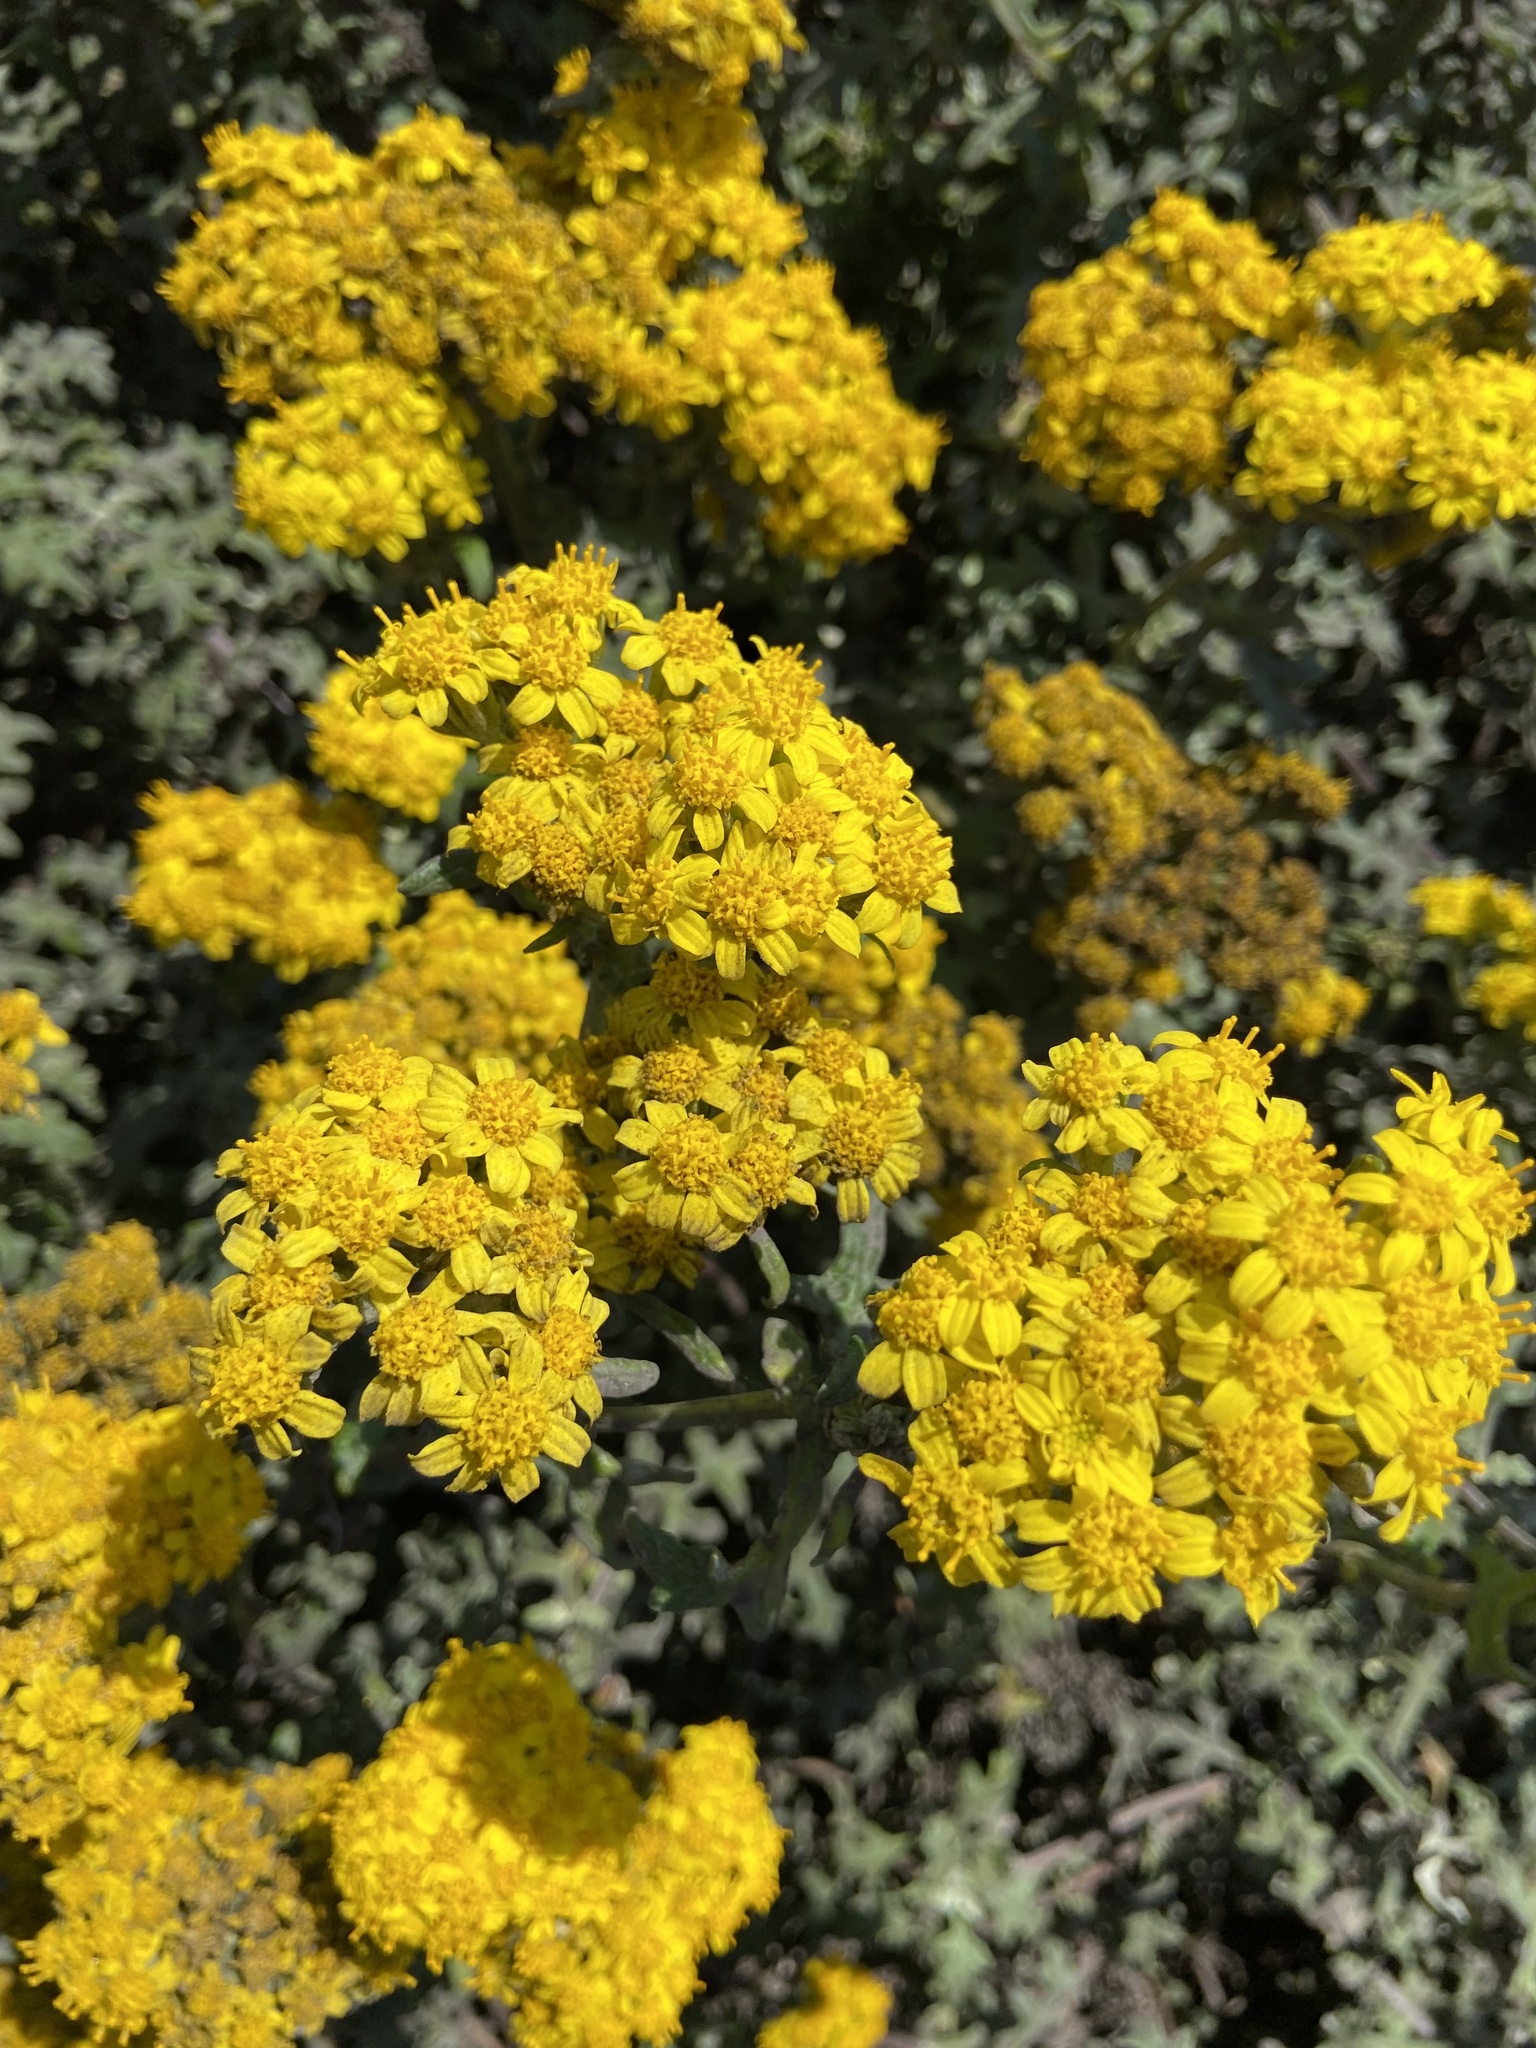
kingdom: Plantae
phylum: Tracheophyta
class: Magnoliopsida
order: Asterales
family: Asteraceae
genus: Eriophyllum
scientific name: Eriophyllum staechadifolium
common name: Lizardtail
